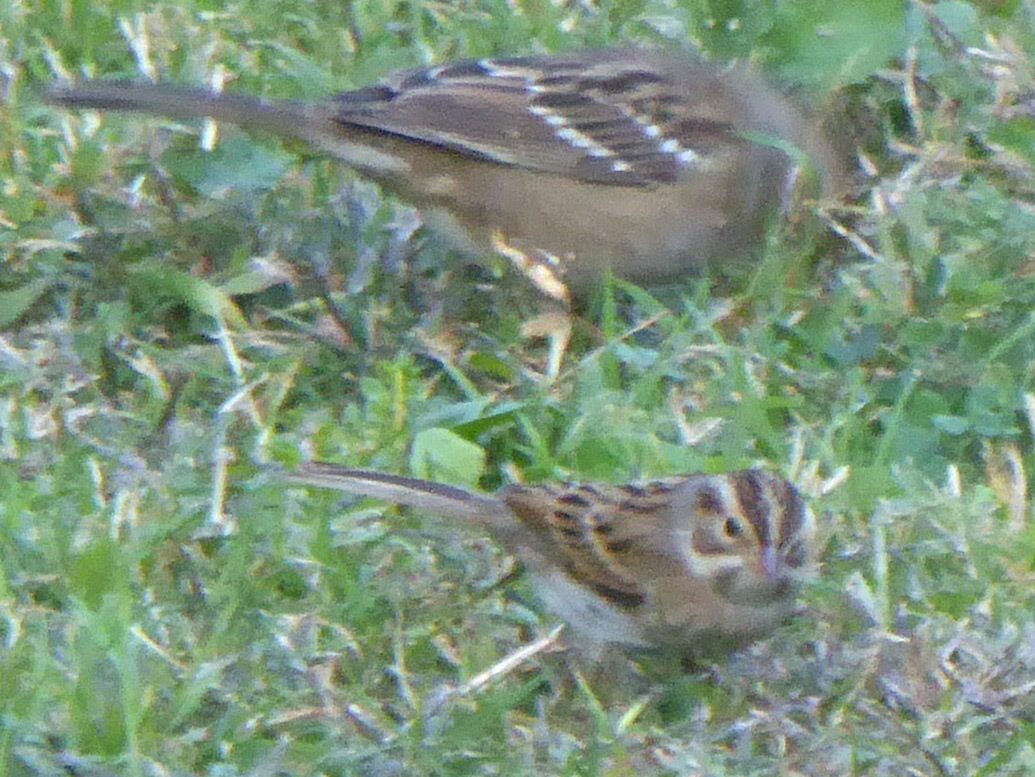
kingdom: Animalia
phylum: Chordata
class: Aves
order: Passeriformes
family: Passerellidae
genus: Spizella
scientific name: Spizella pallida
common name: Clay-colored sparrow
